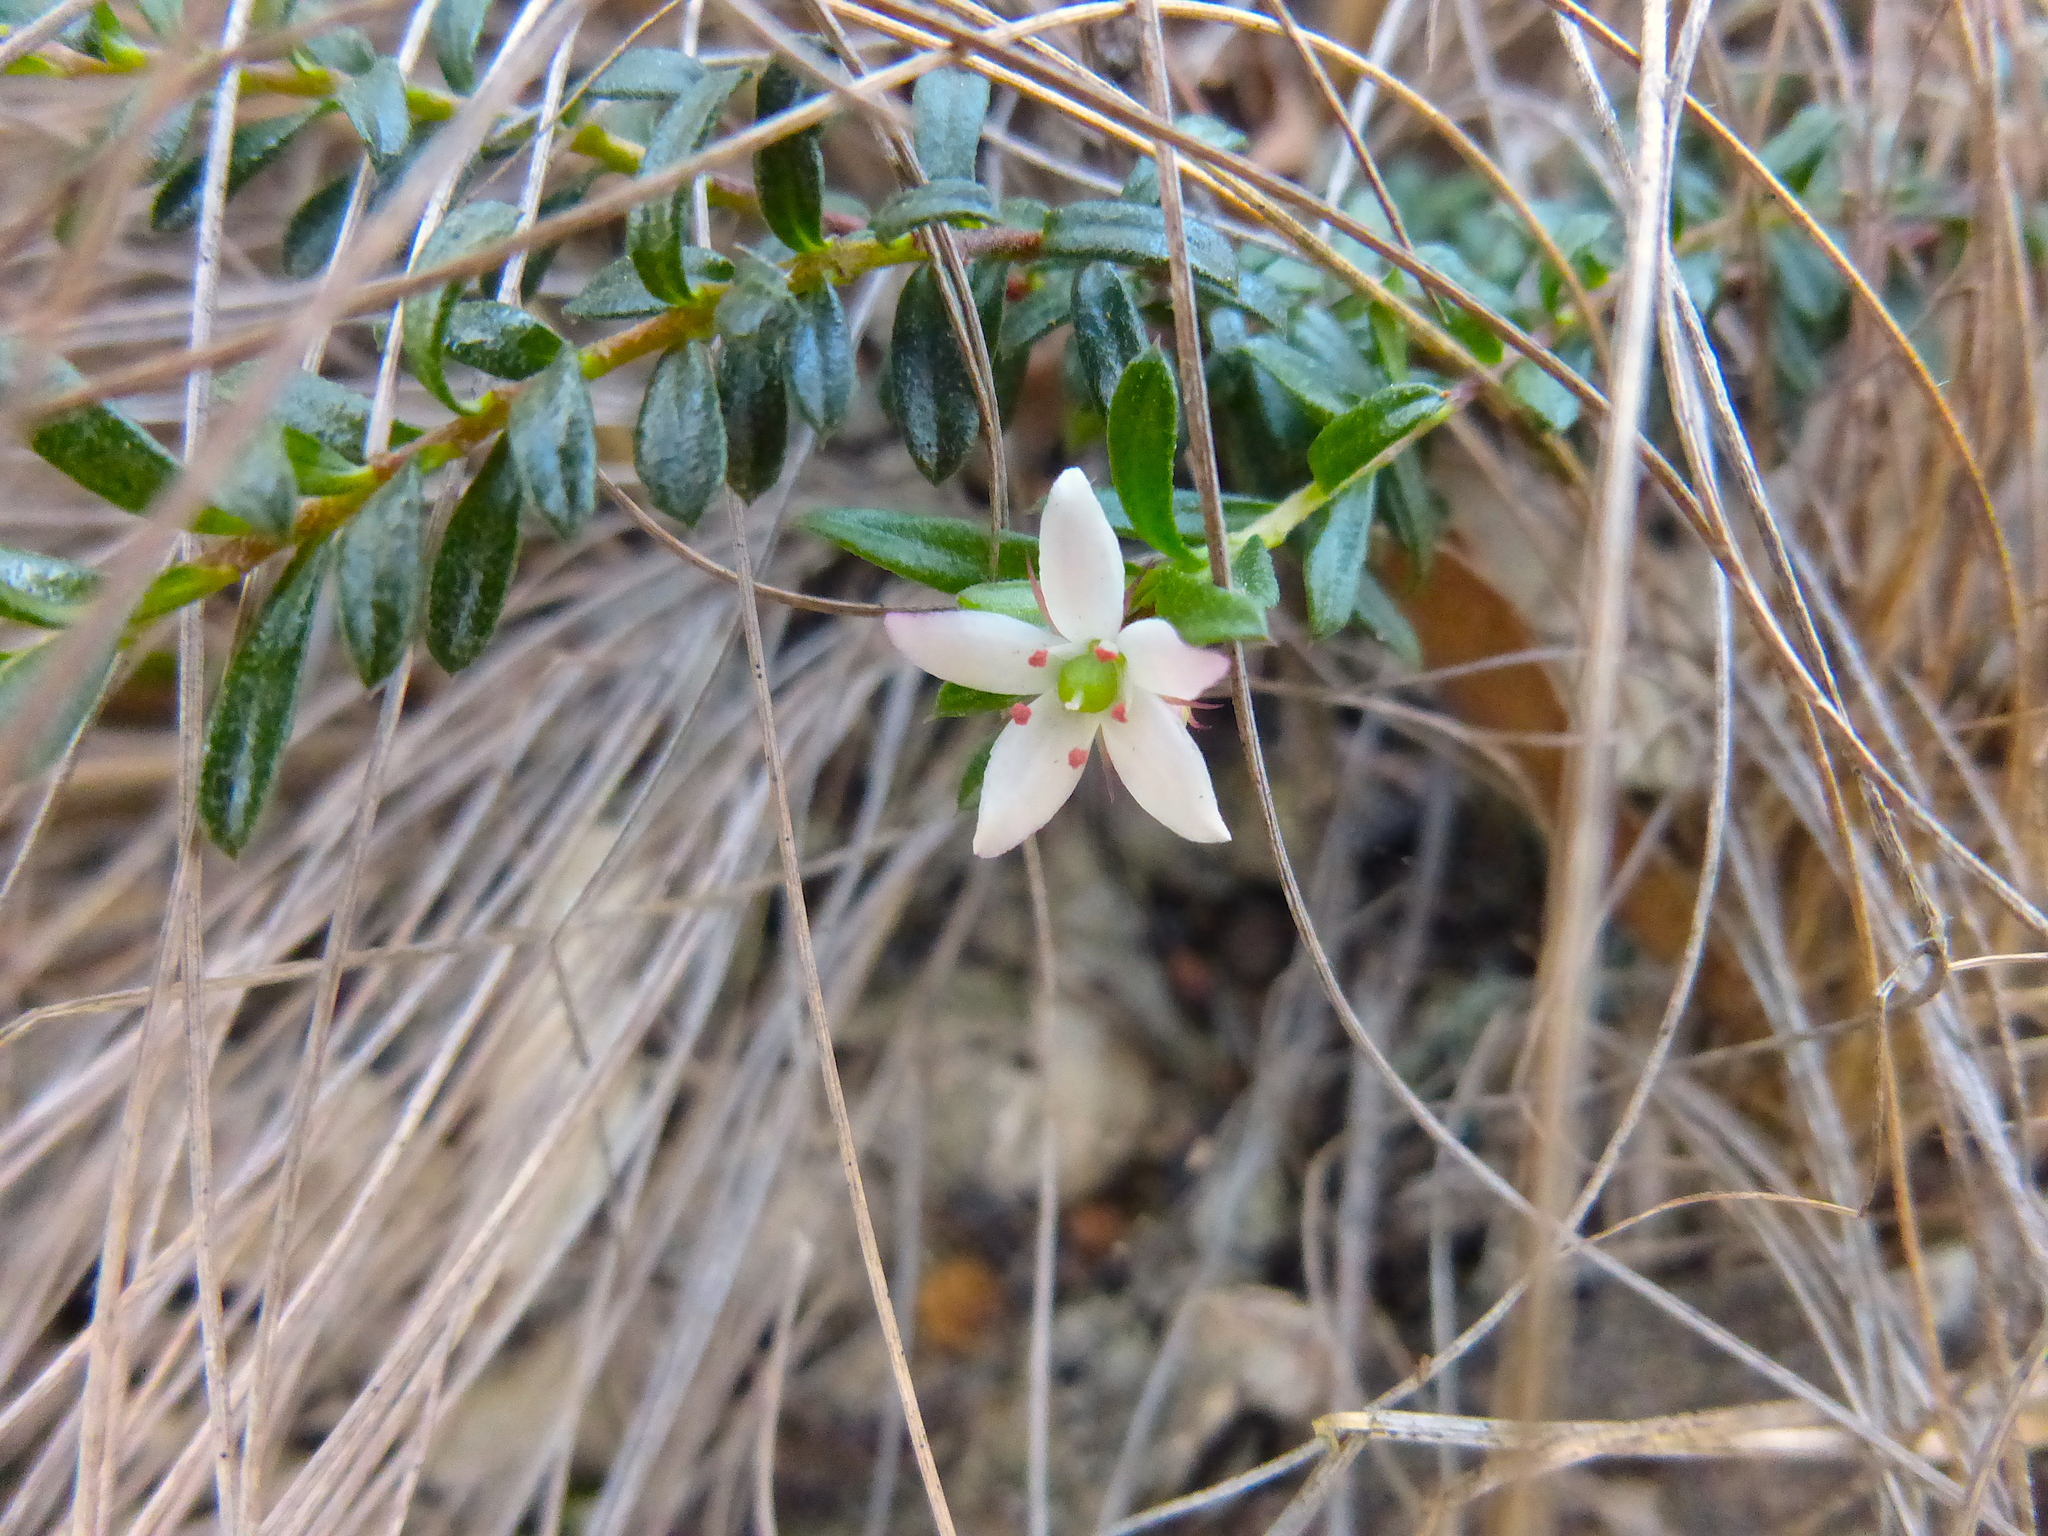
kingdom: Plantae
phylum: Tracheophyta
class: Magnoliopsida
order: Apiales
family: Pittosporaceae
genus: Rhytidosporum
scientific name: Rhytidosporum procumbens
